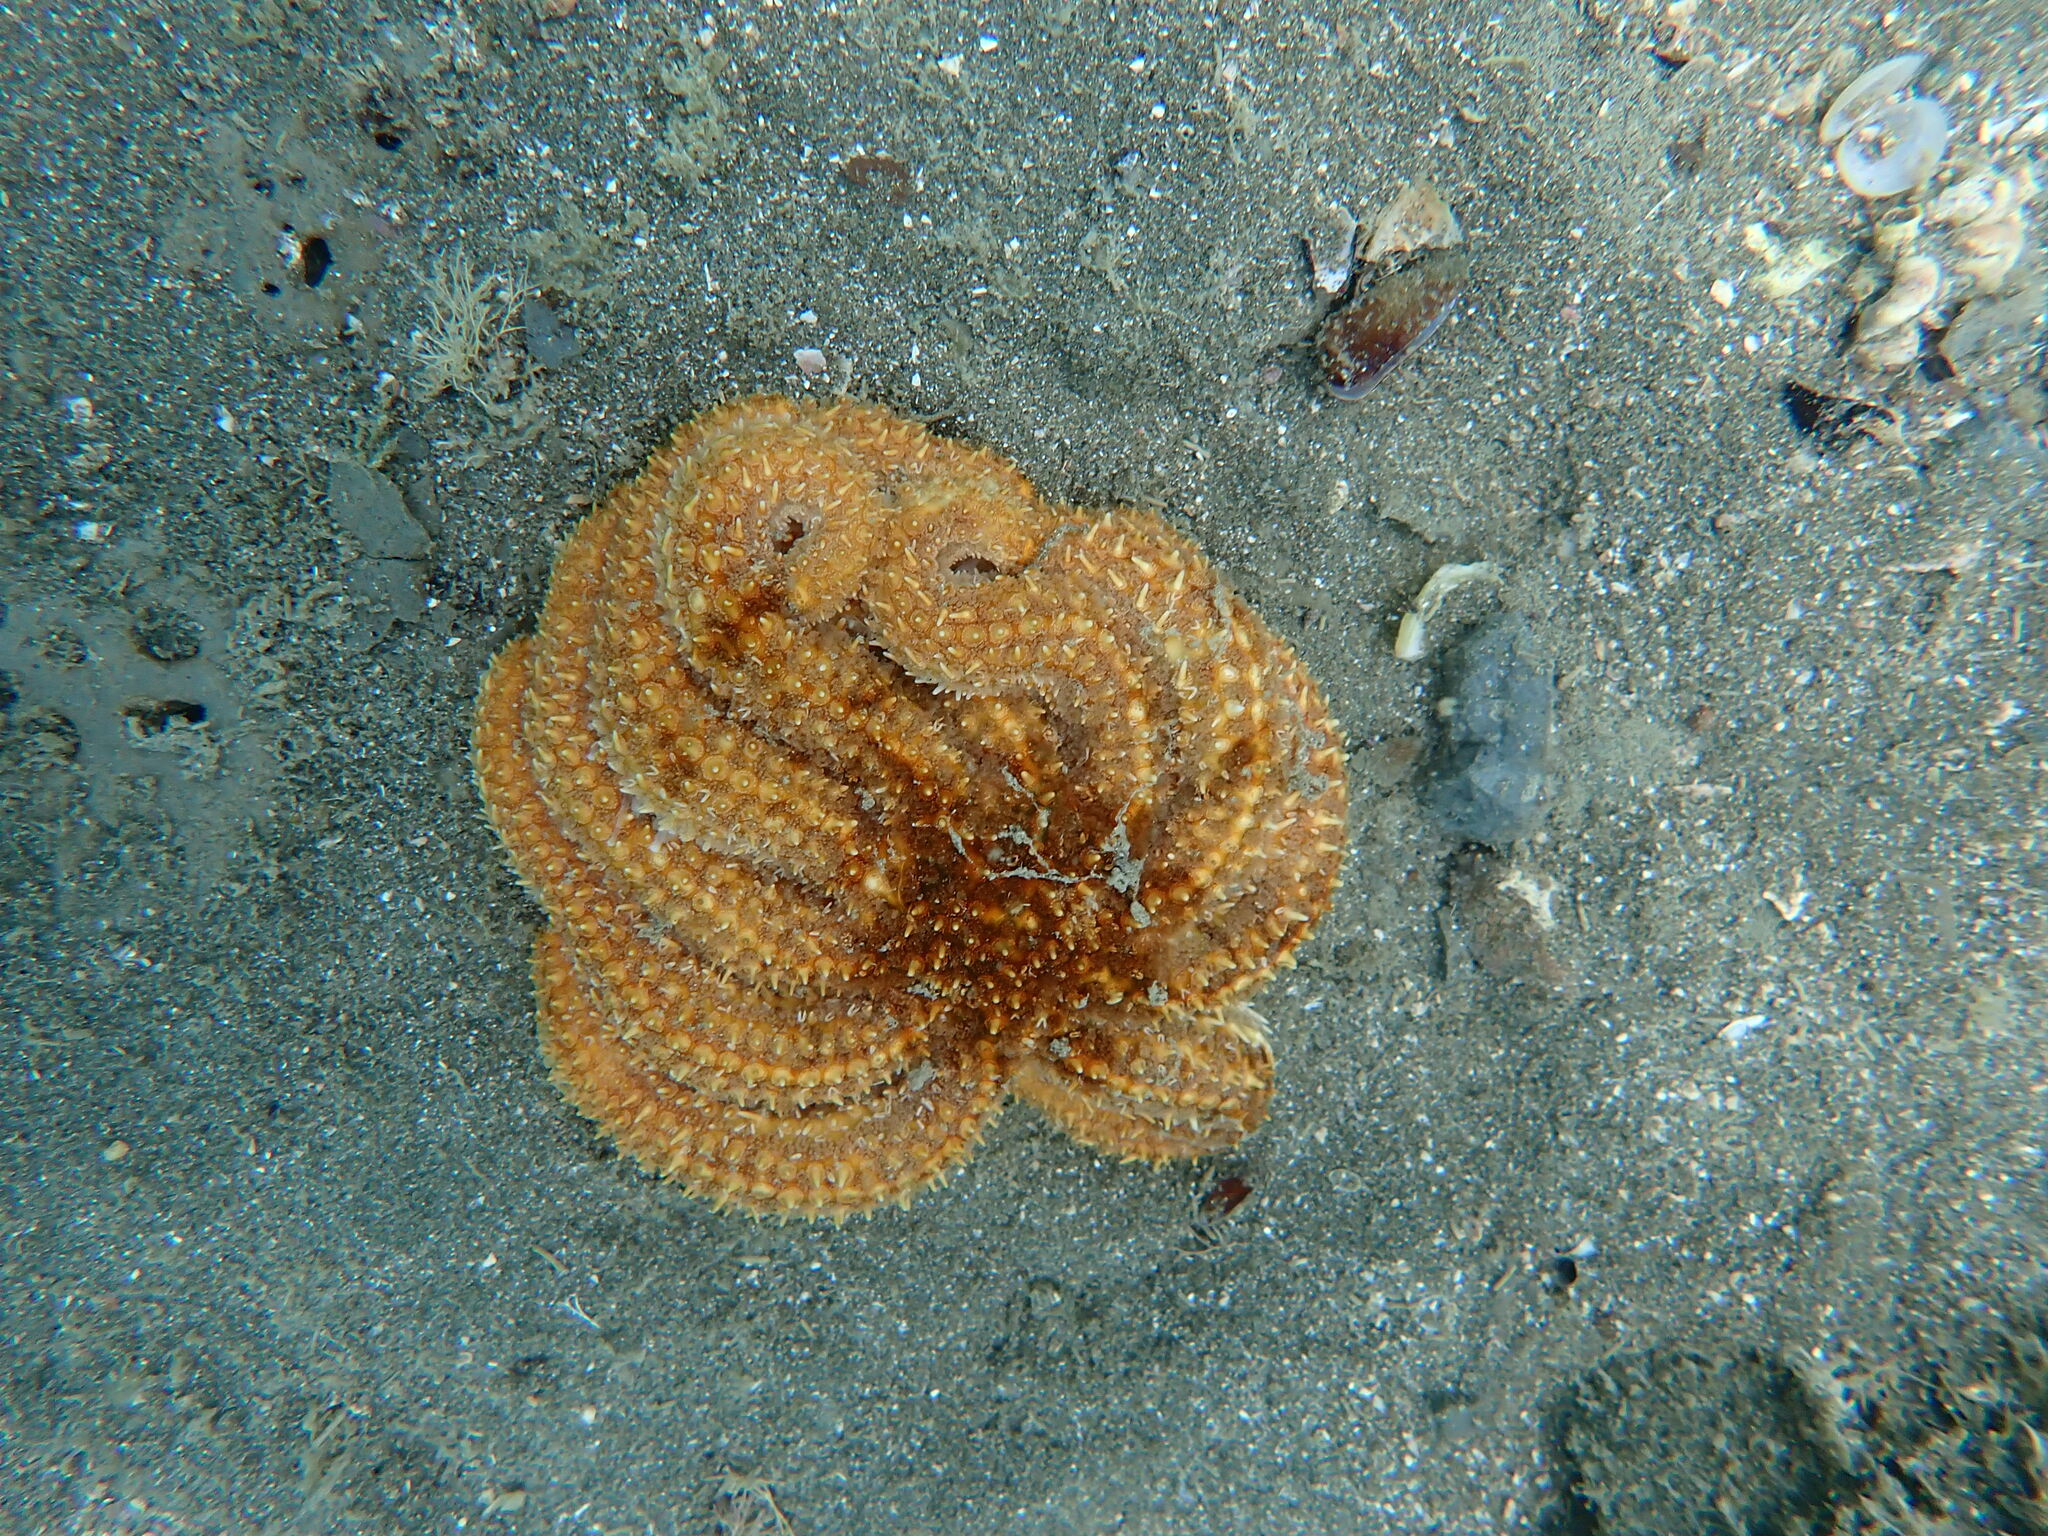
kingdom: Animalia
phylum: Echinodermata
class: Asteroidea
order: Forcipulatida
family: Asteriidae
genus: Coscinasterias
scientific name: Coscinasterias muricata
